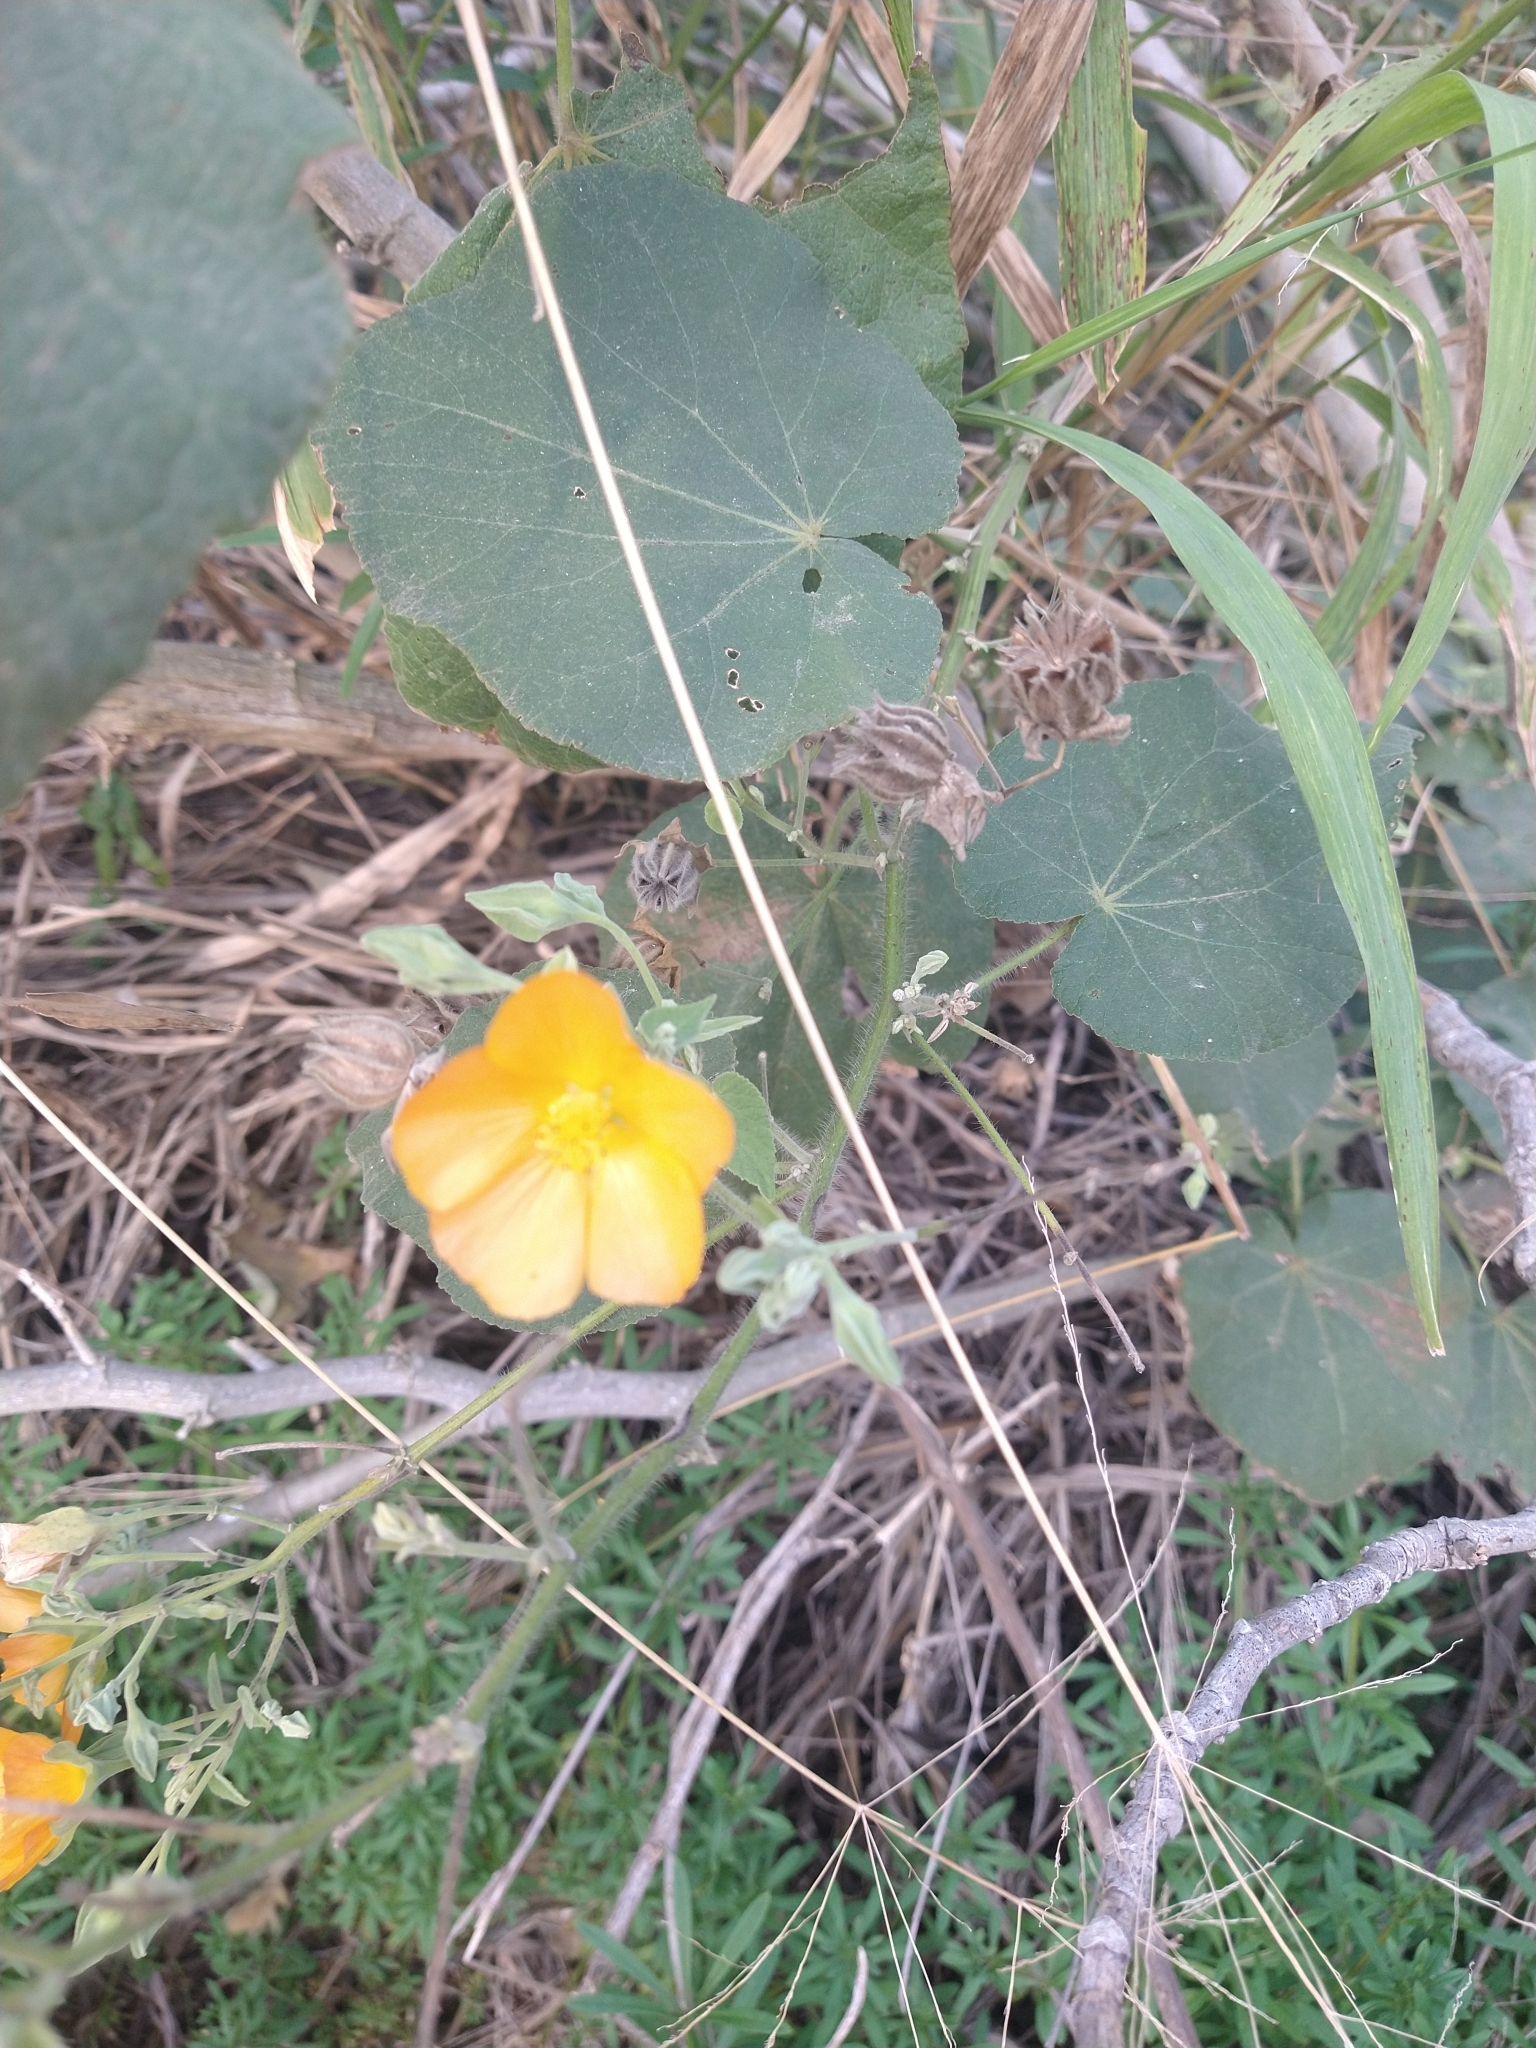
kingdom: Plantae
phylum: Tracheophyta
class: Magnoliopsida
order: Malvales
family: Malvaceae
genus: Abutilon
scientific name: Abutilon grandifolium
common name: Hairy abutilon
